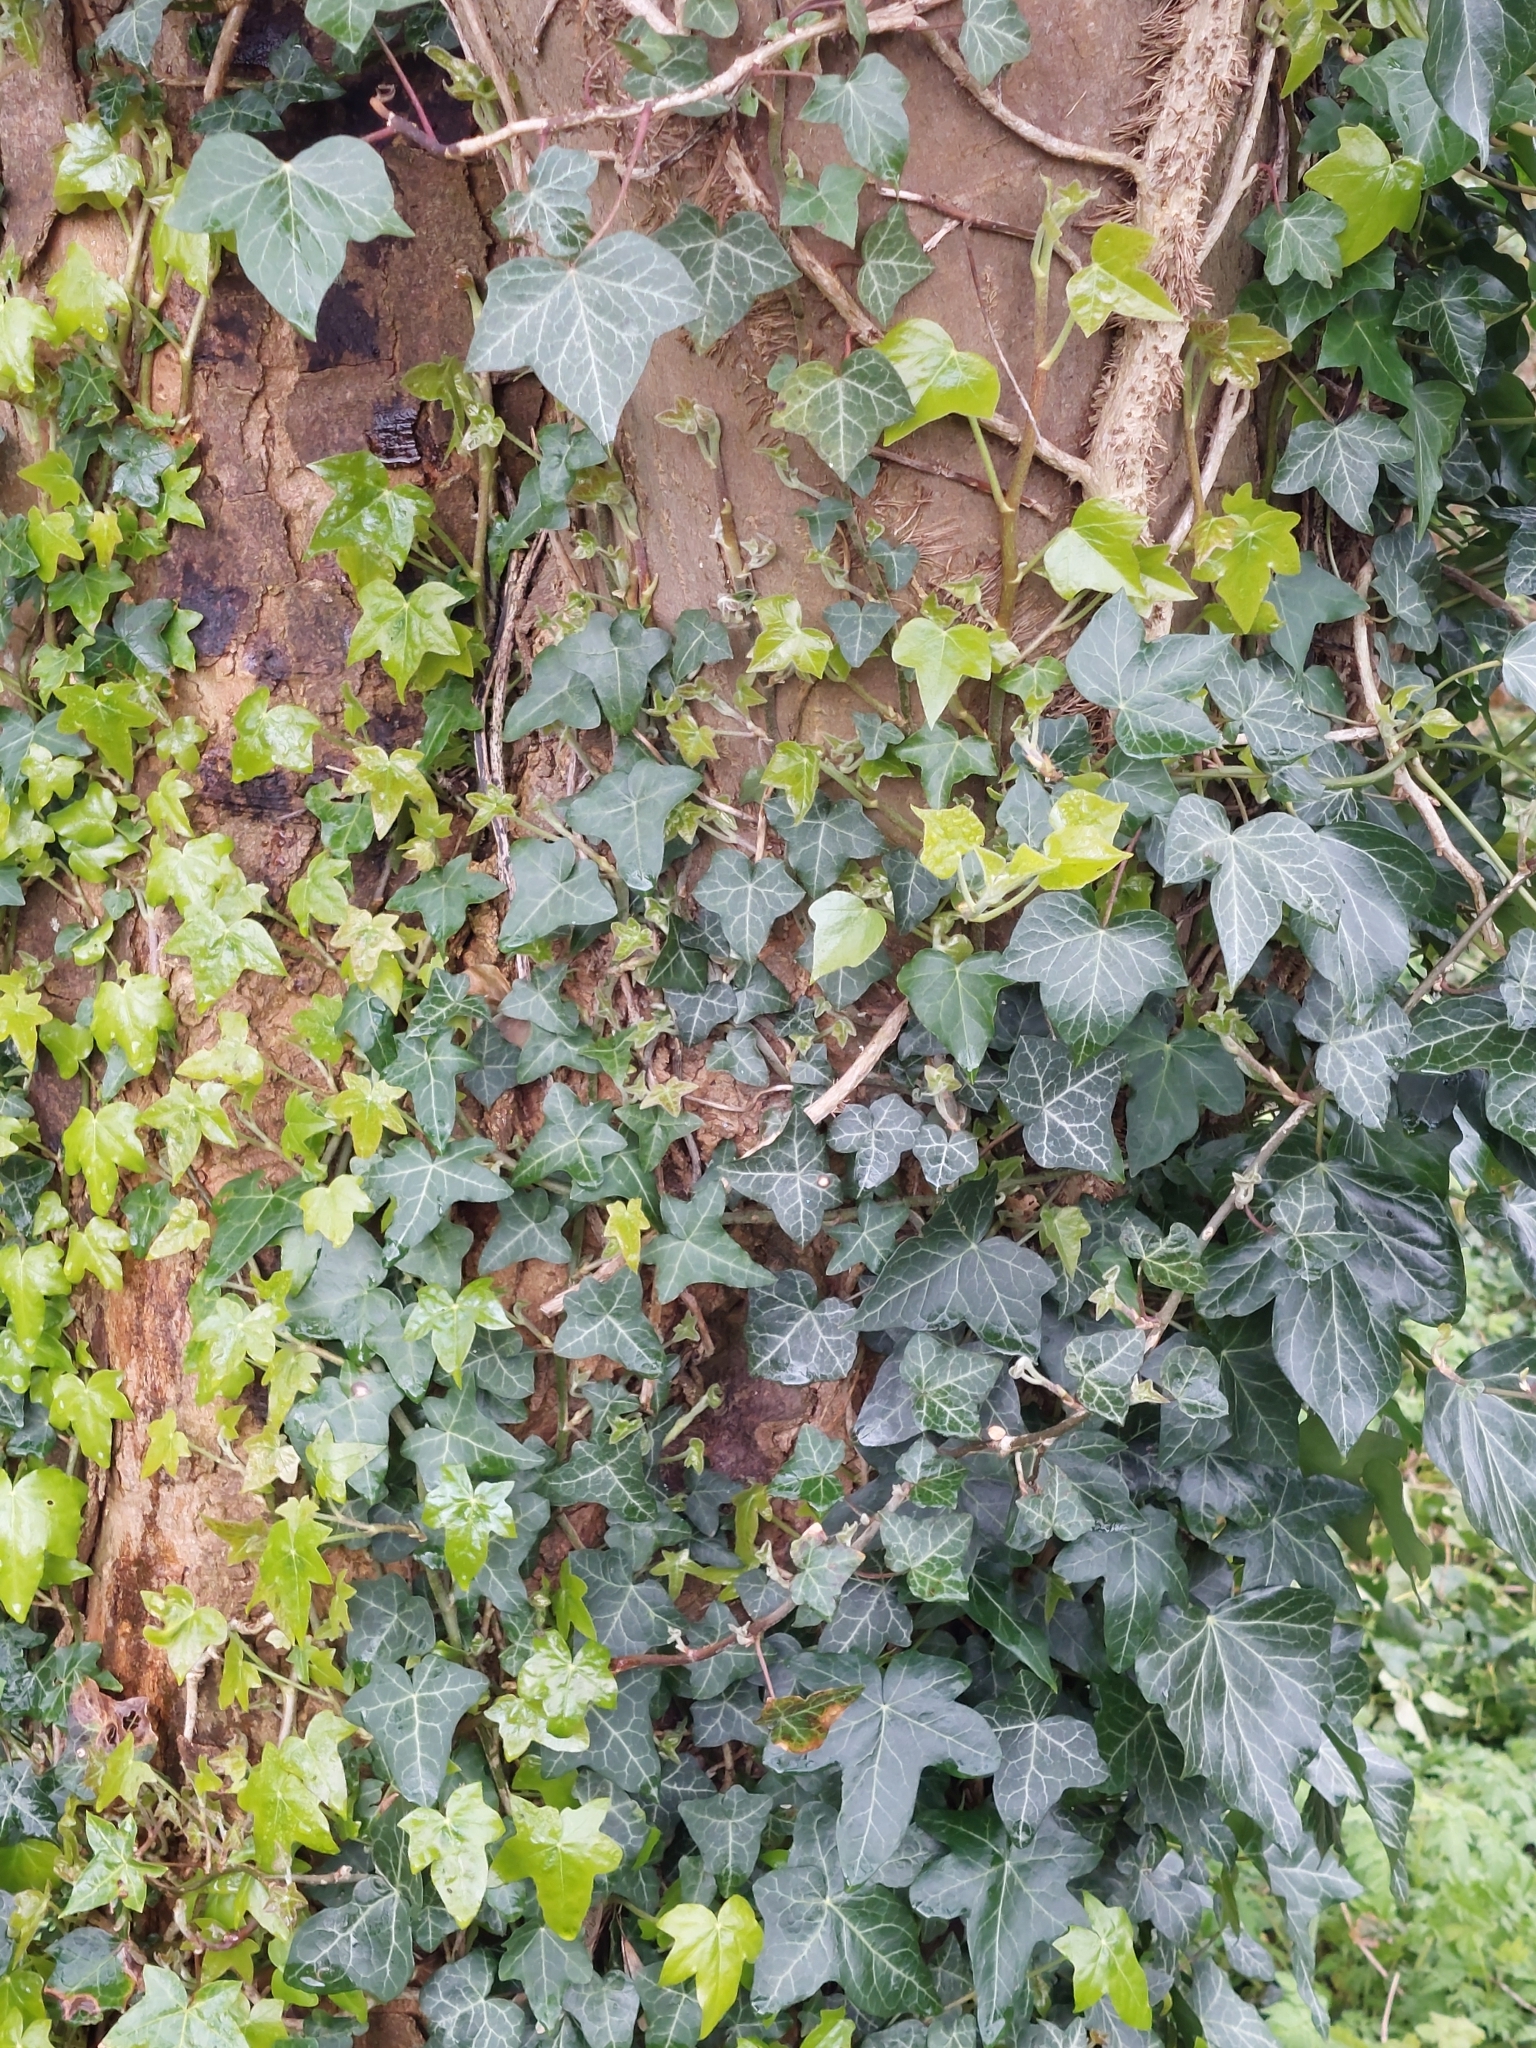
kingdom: Plantae
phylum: Tracheophyta
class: Magnoliopsida
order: Apiales
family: Araliaceae
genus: Hedera
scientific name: Hedera helix
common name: Ivy
